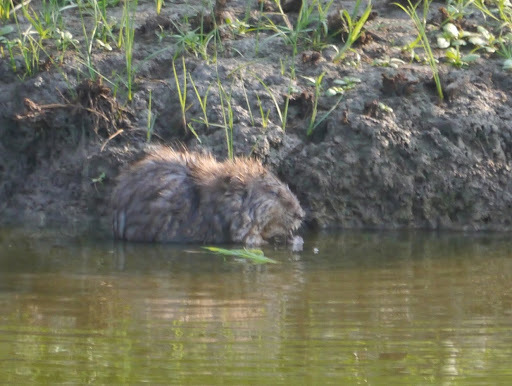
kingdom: Animalia
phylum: Chordata
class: Mammalia
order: Rodentia
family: Cricetidae
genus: Ondatra
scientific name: Ondatra zibethicus
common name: Muskrat
